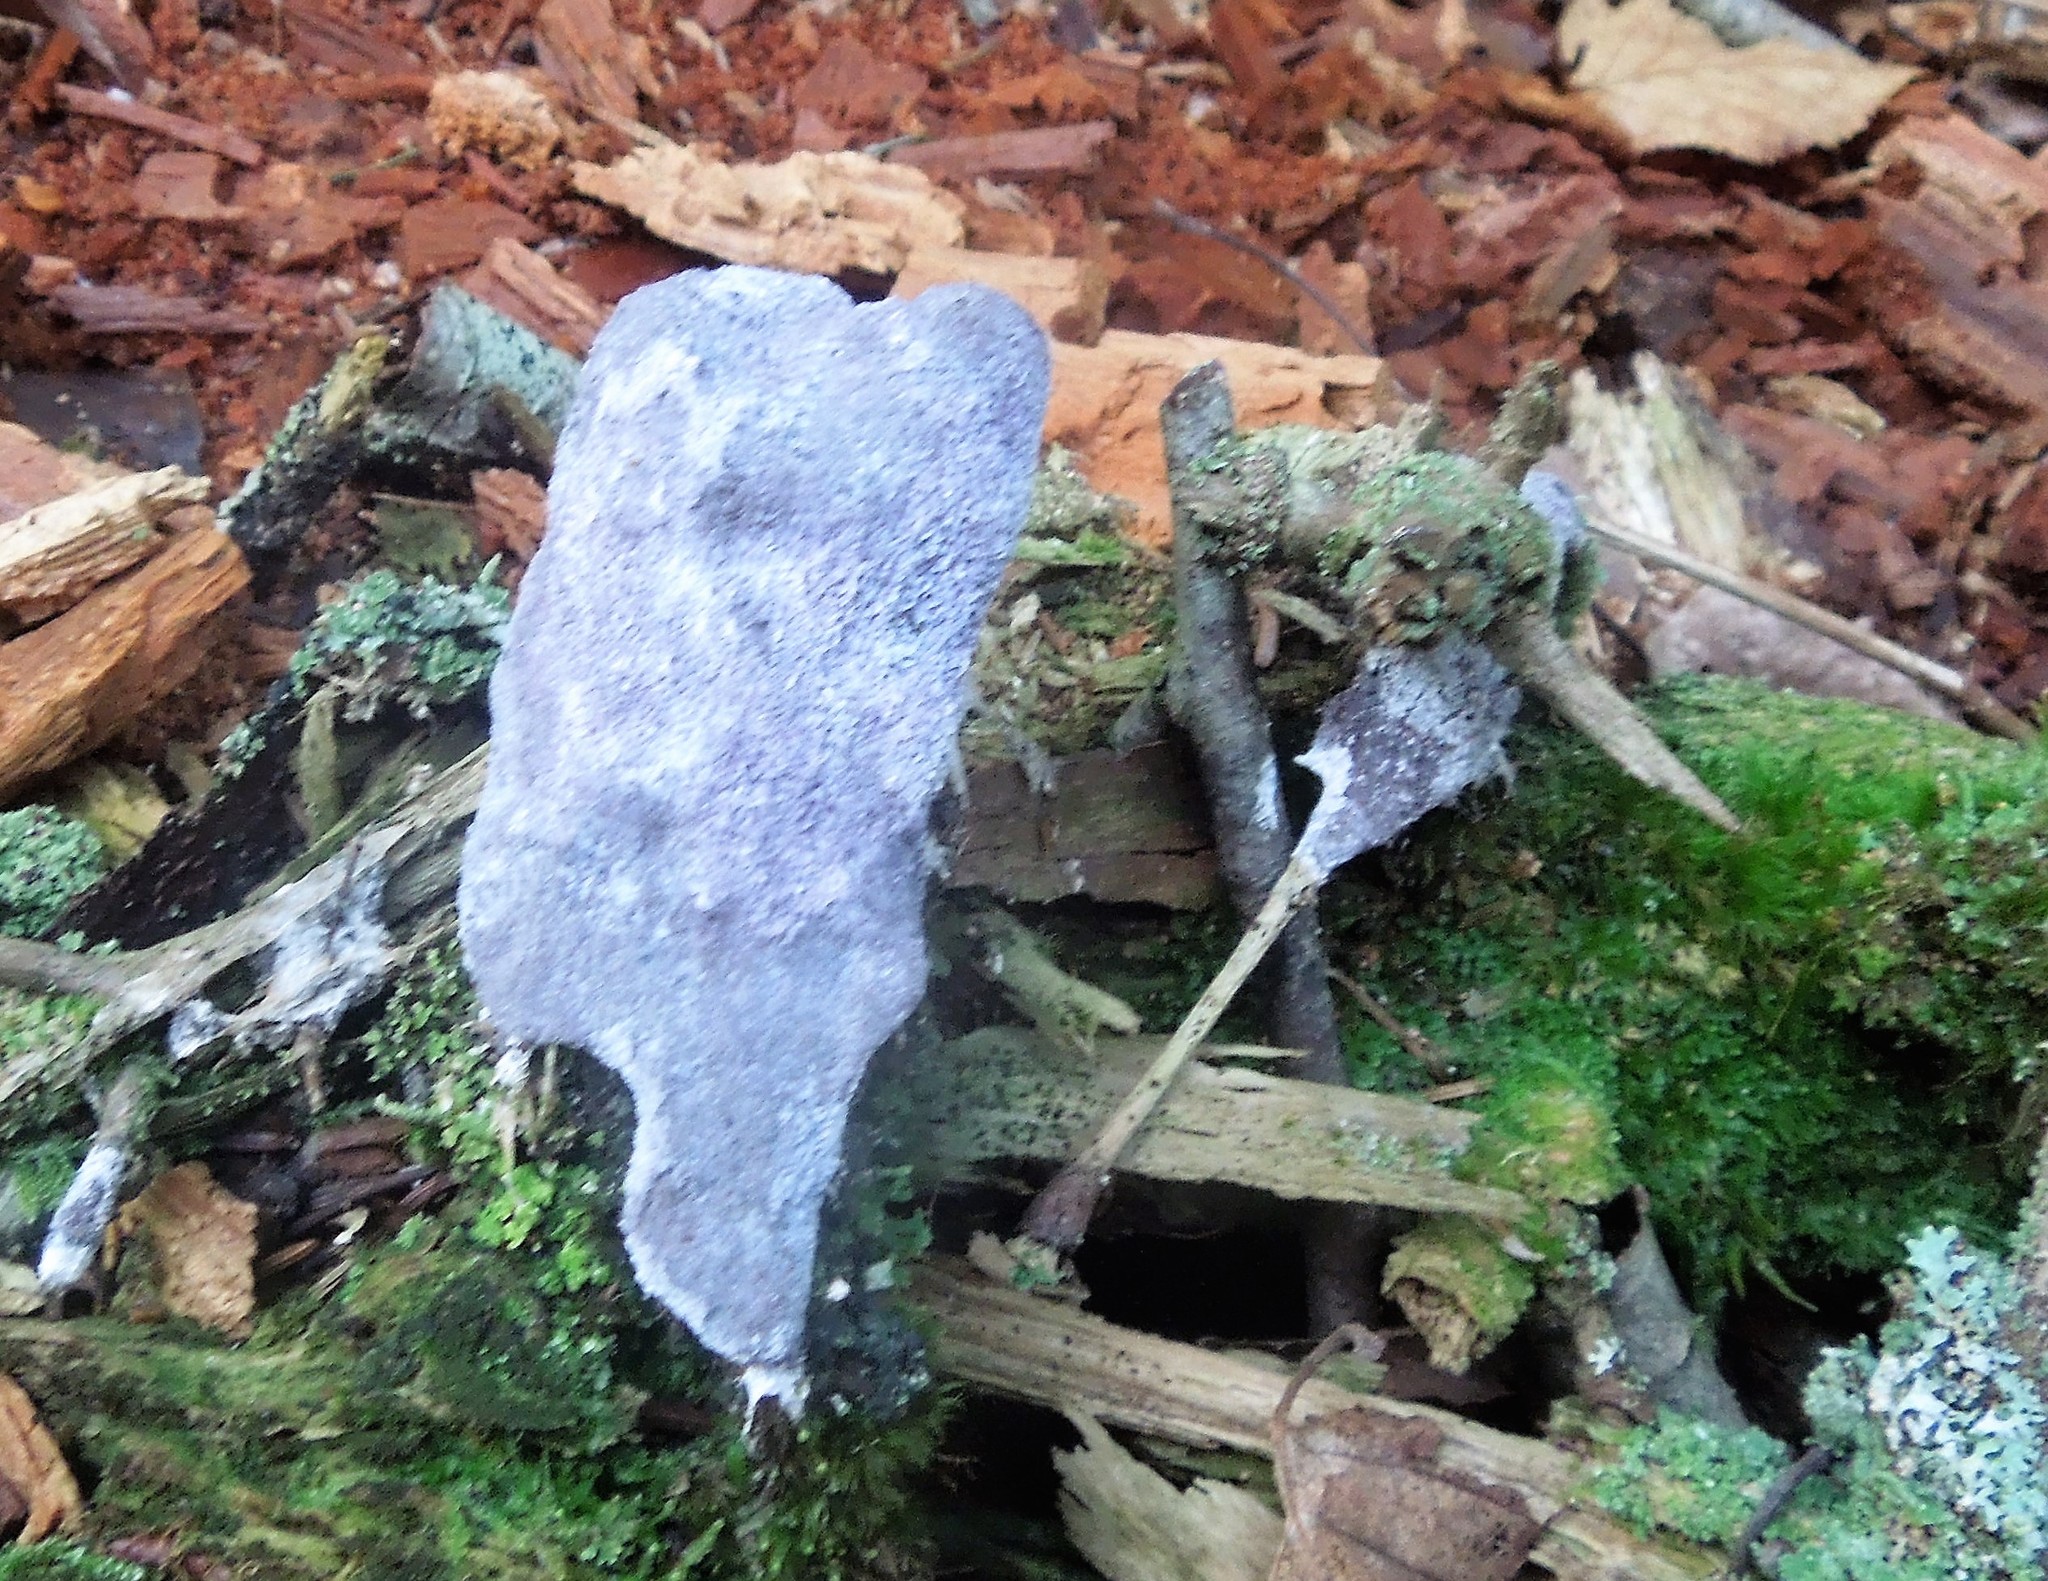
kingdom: Fungi
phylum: Ascomycota
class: Sordariomycetes
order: Hypocreales
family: Bionectriaceae
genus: Nectriopsis
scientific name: Nectriopsis violacea
